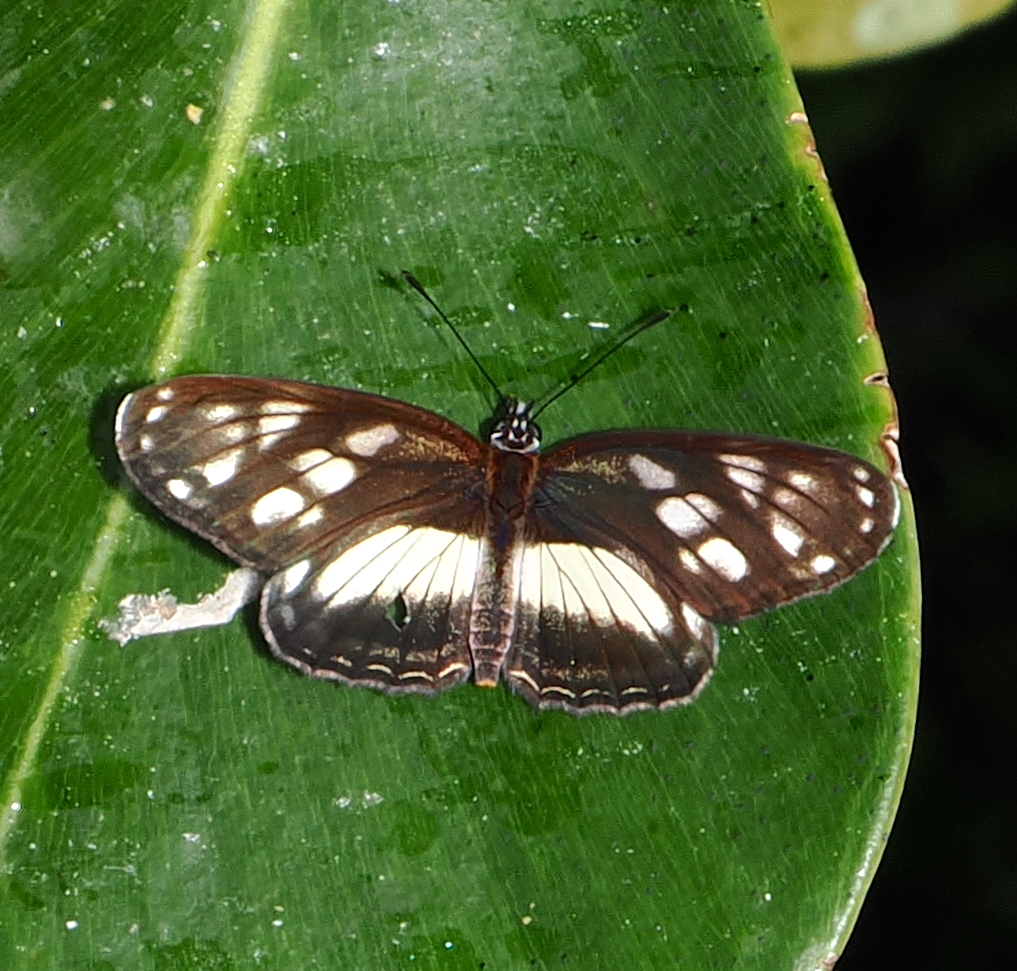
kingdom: Animalia
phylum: Arthropoda
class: Insecta
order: Lepidoptera
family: Nymphalidae
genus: Eresia
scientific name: Eresia letitia
